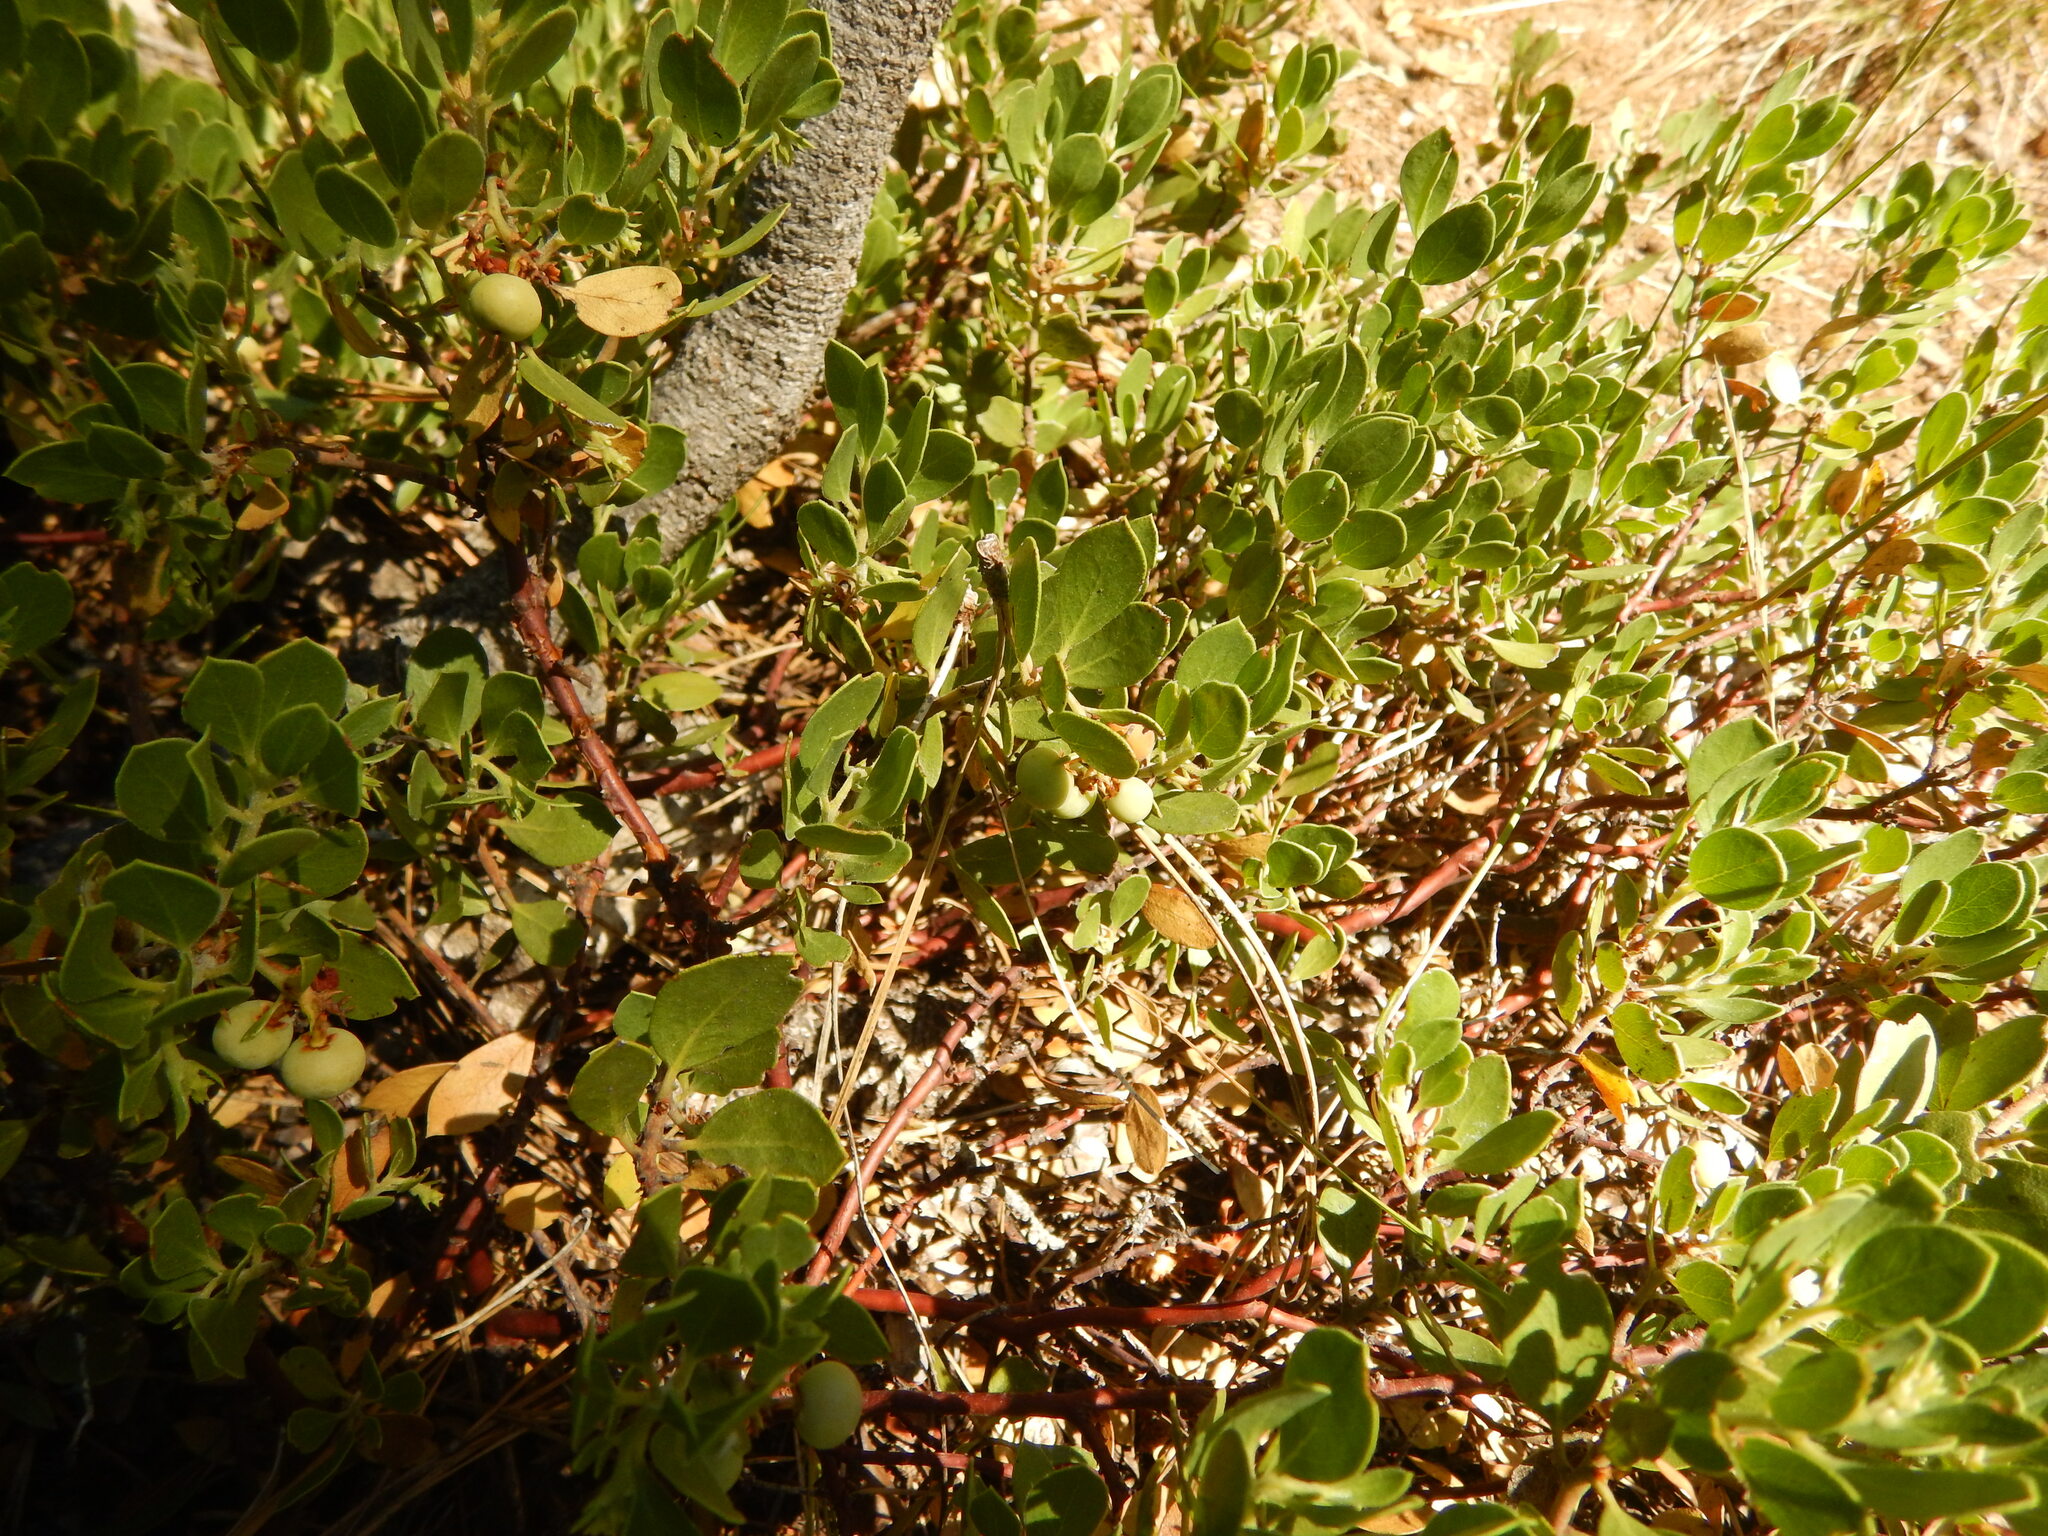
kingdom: Plantae
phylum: Tracheophyta
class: Magnoliopsida
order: Ericales
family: Ericaceae
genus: Arctostaphylos
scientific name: Arctostaphylos nevadensis
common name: Pinemat manzanita
